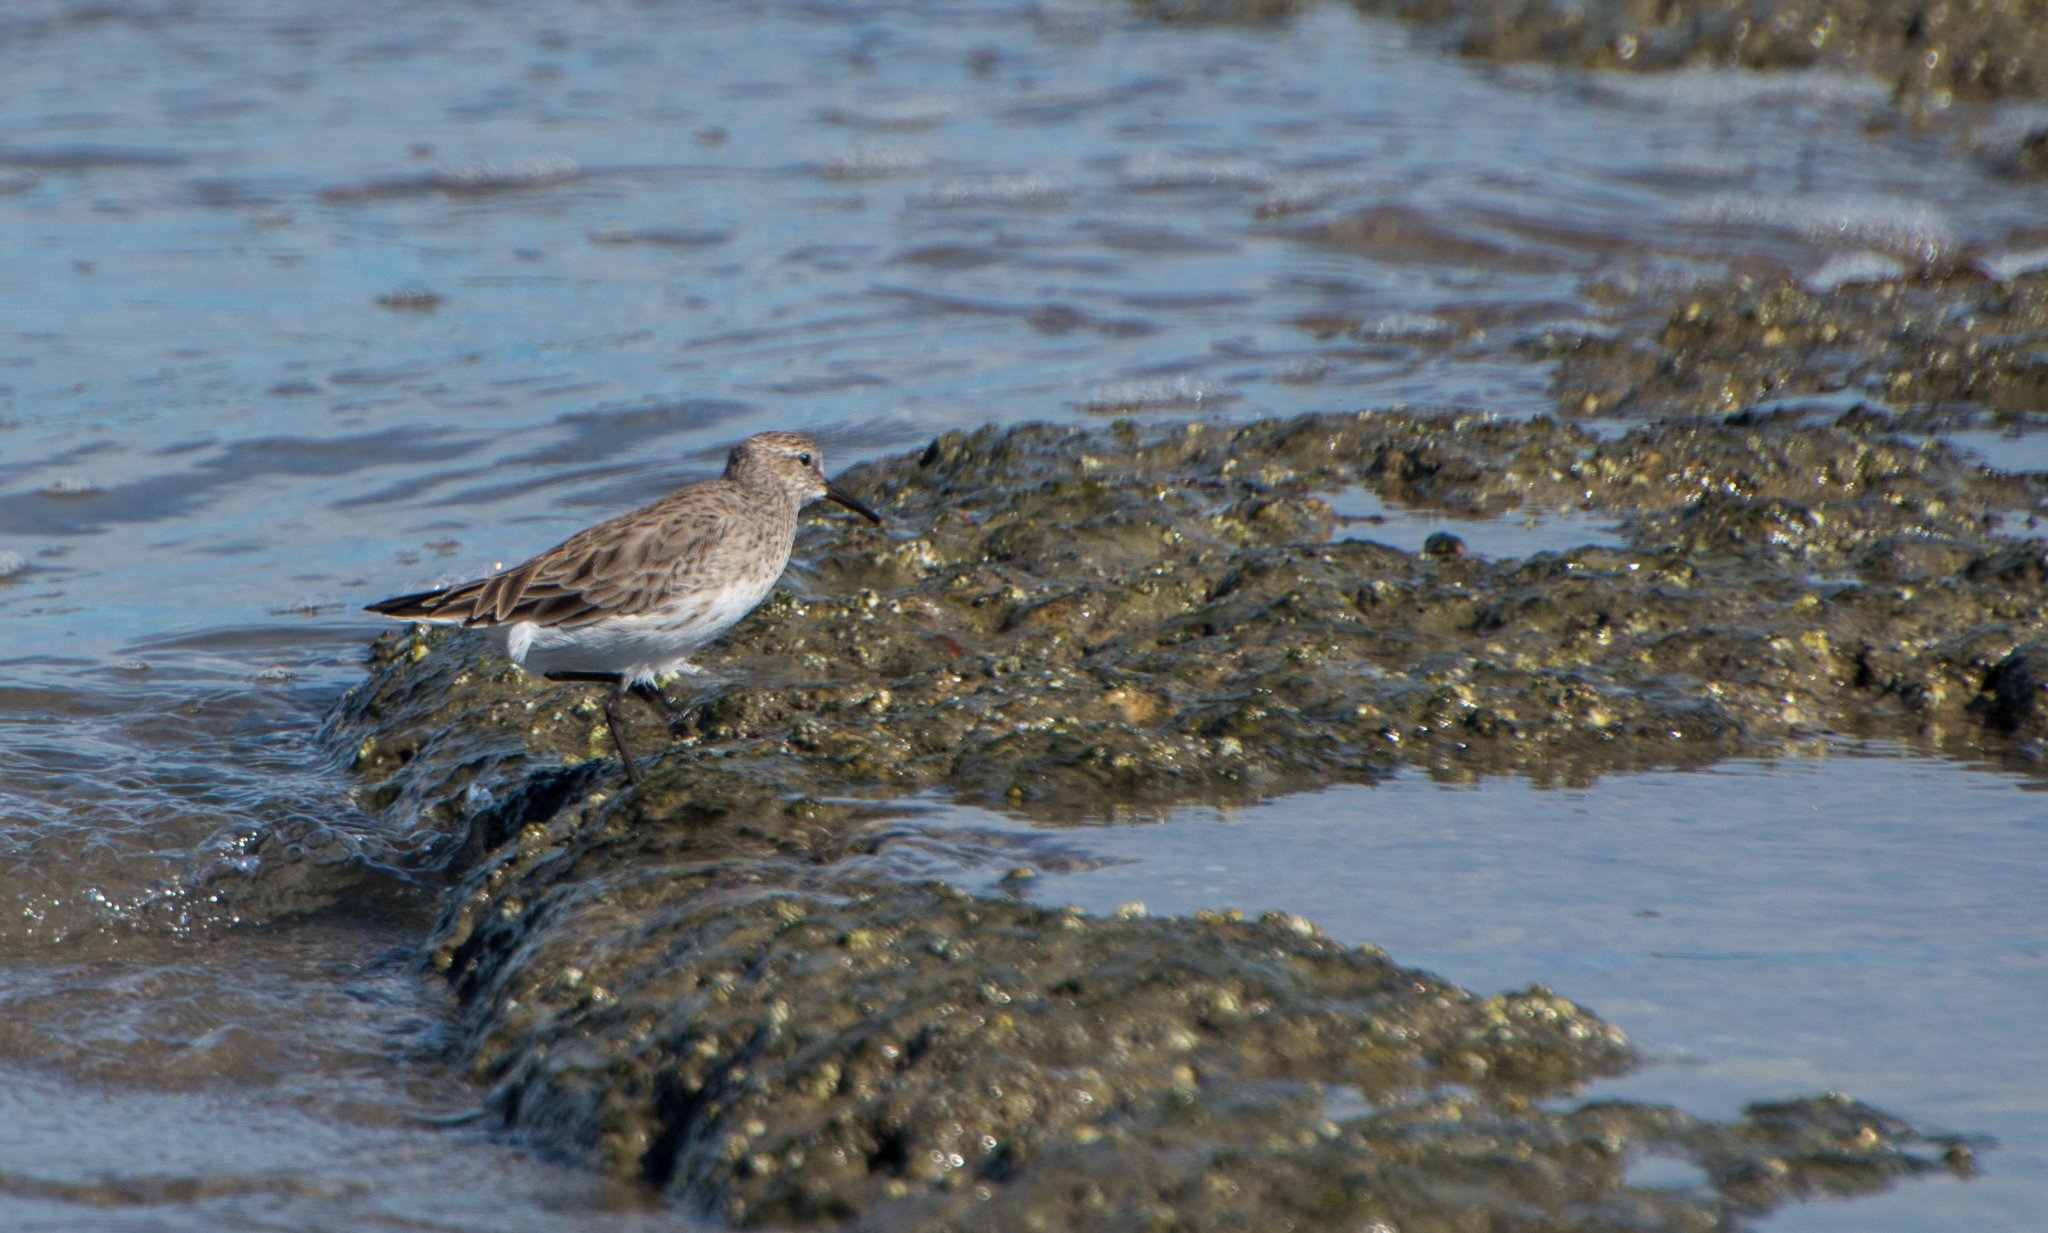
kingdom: Animalia
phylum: Chordata
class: Aves
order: Charadriiformes
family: Scolopacidae
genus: Calidris
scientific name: Calidris fuscicollis
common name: White-rumped sandpiper
